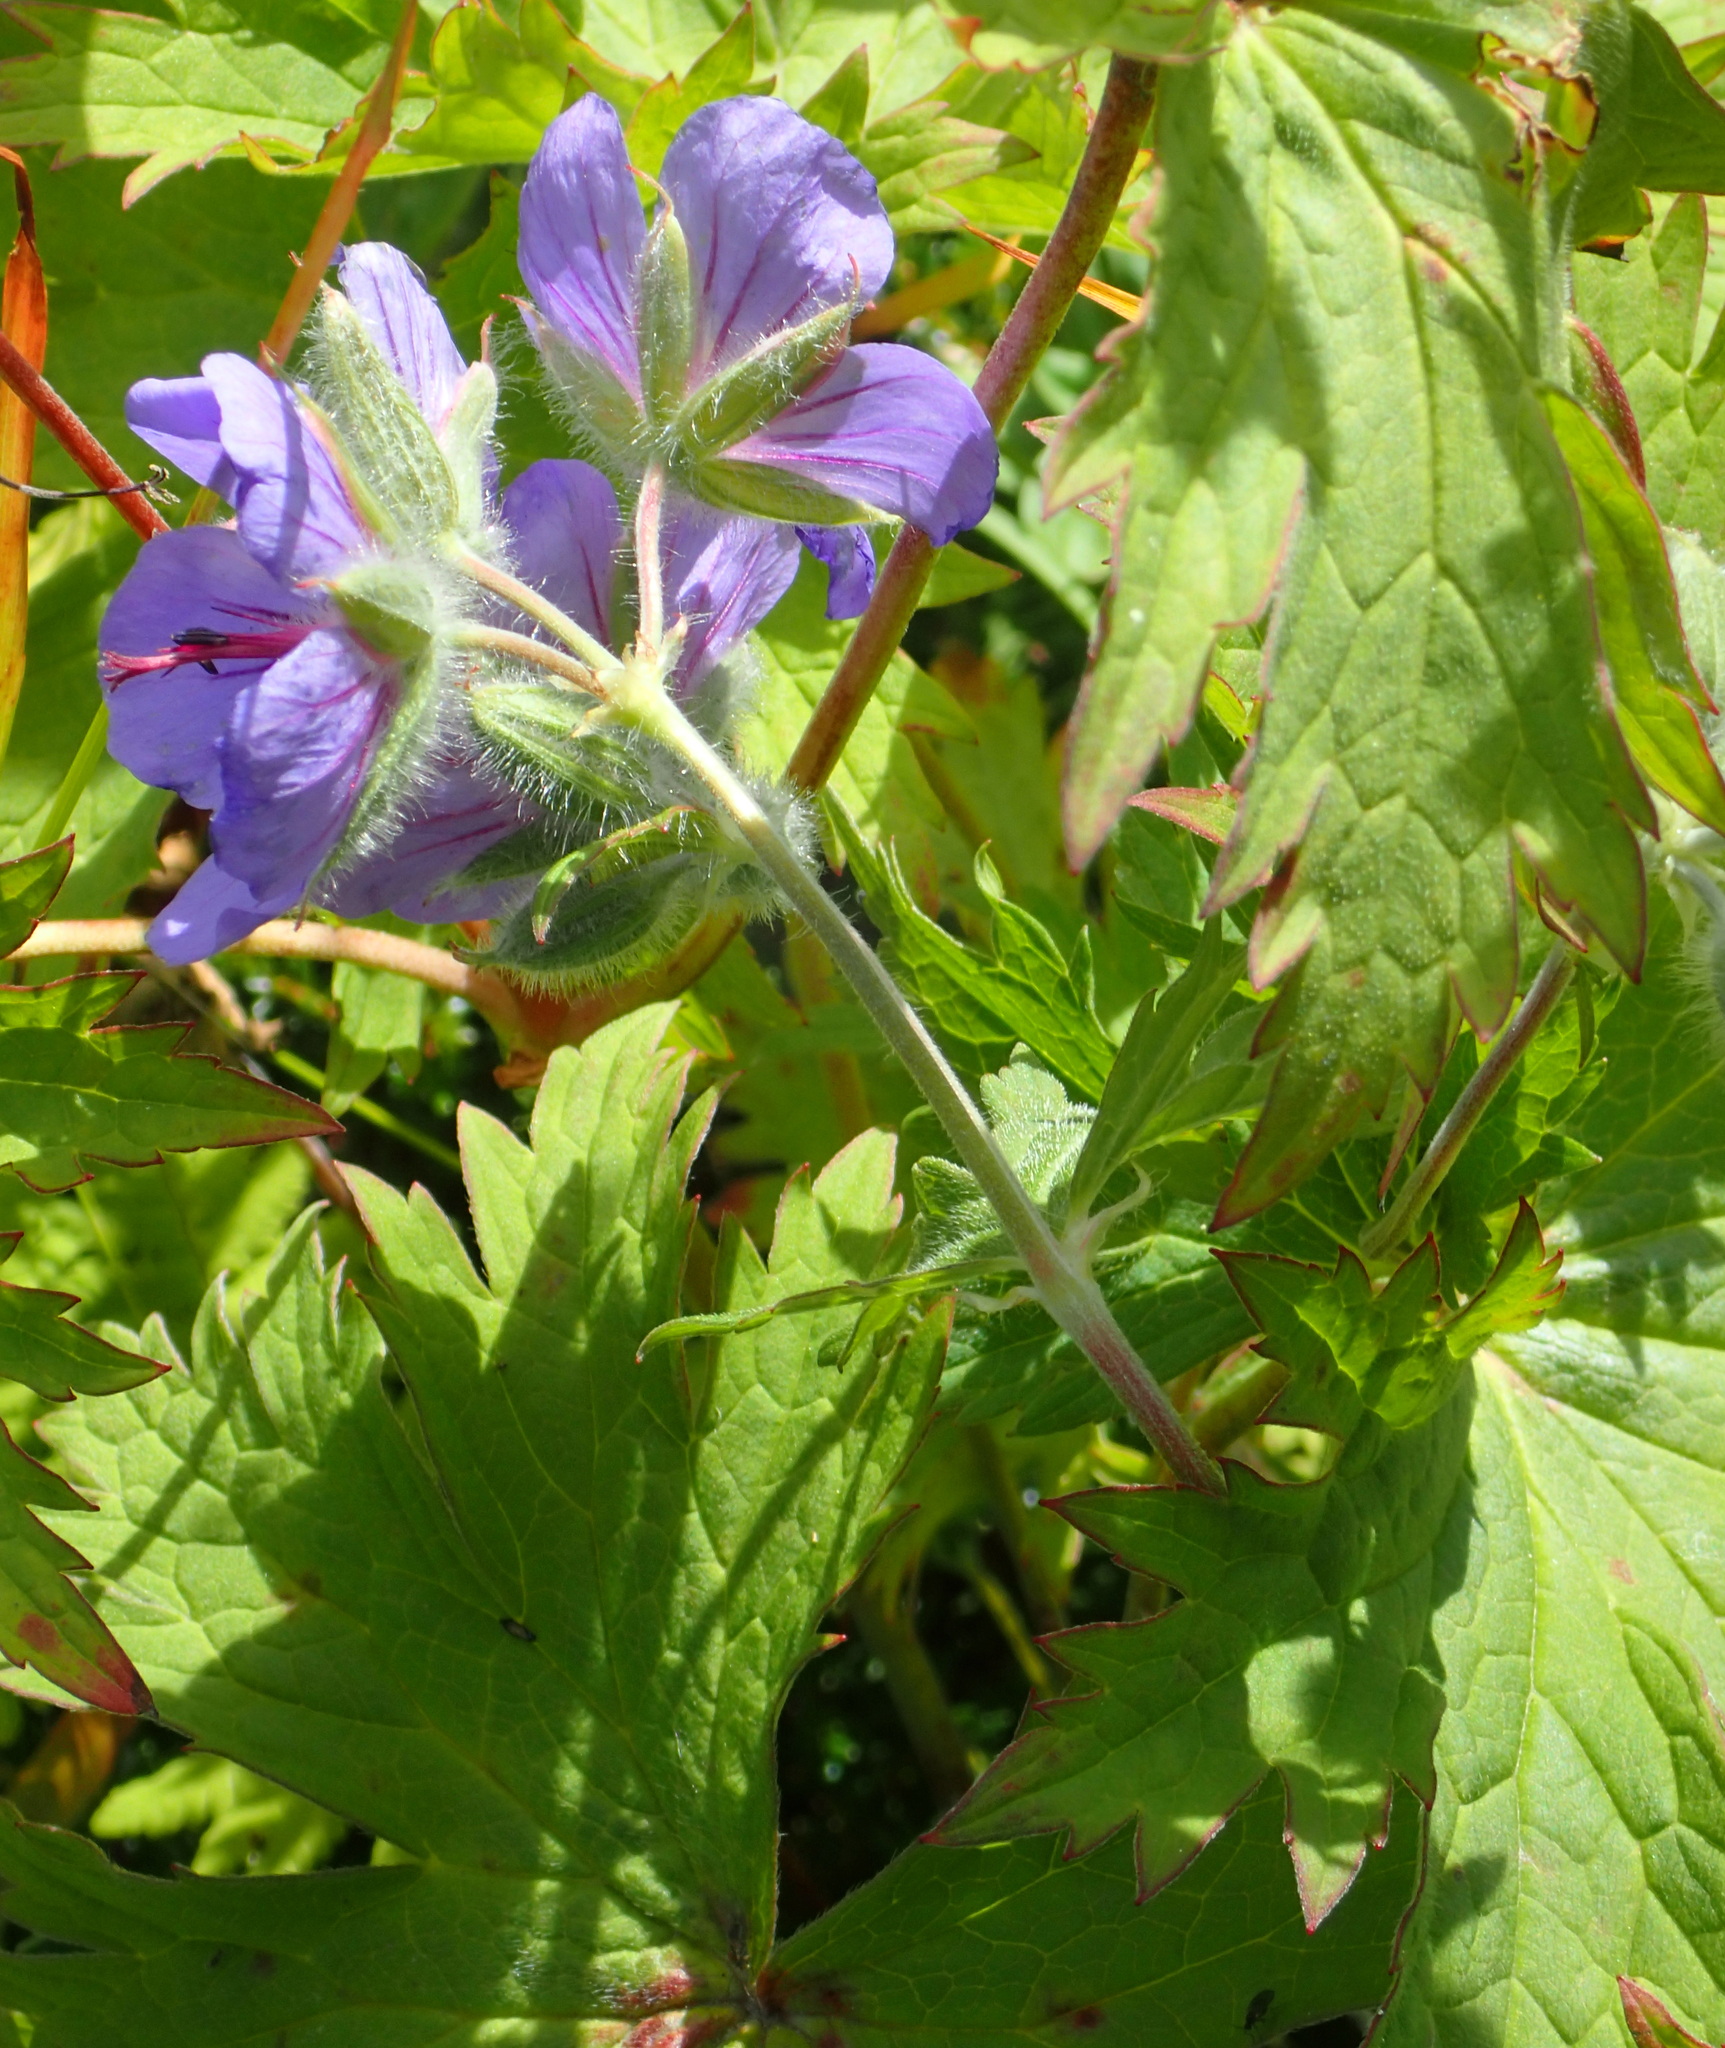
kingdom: Plantae
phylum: Tracheophyta
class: Magnoliopsida
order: Geraniales
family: Geraniaceae
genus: Geranium
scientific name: Geranium erianthum
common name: Northern crane's-bill
